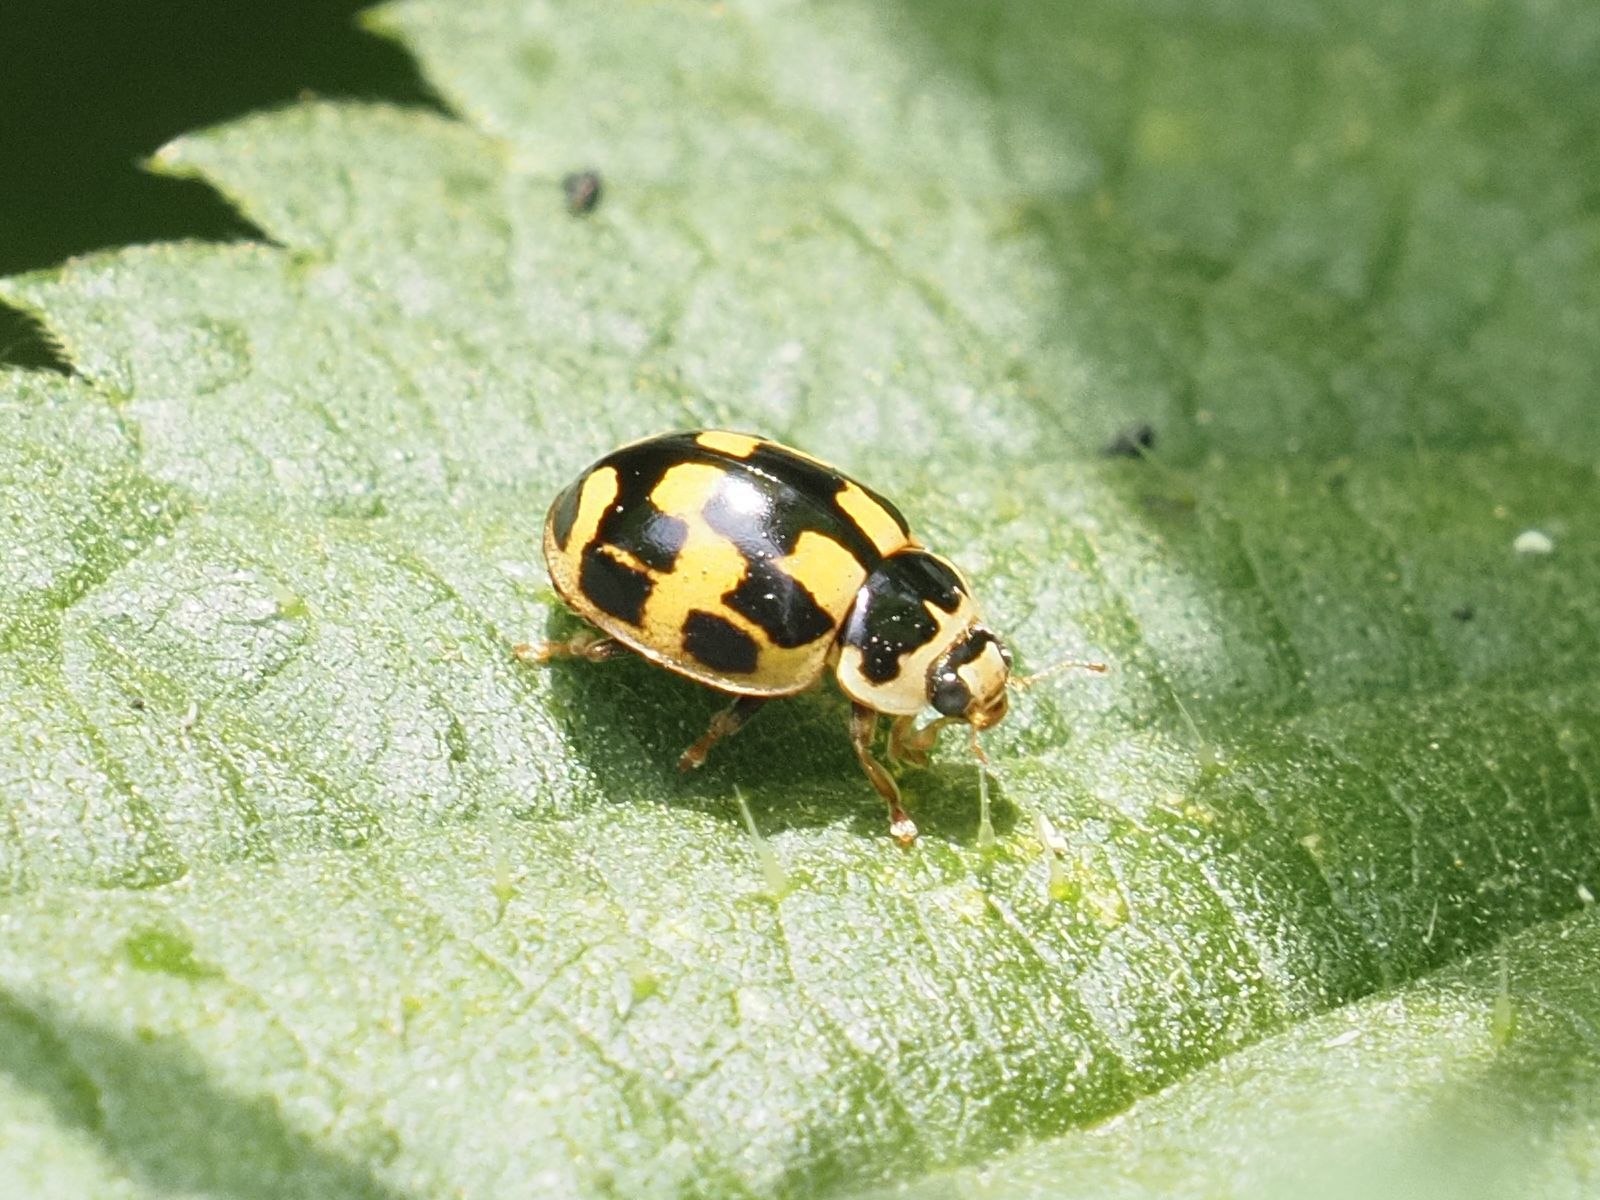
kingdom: Animalia
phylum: Arthropoda
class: Insecta
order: Coleoptera
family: Coccinellidae
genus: Propylaea
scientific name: Propylaea quatuordecimpunctata
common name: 14-spotted ladybird beetle
